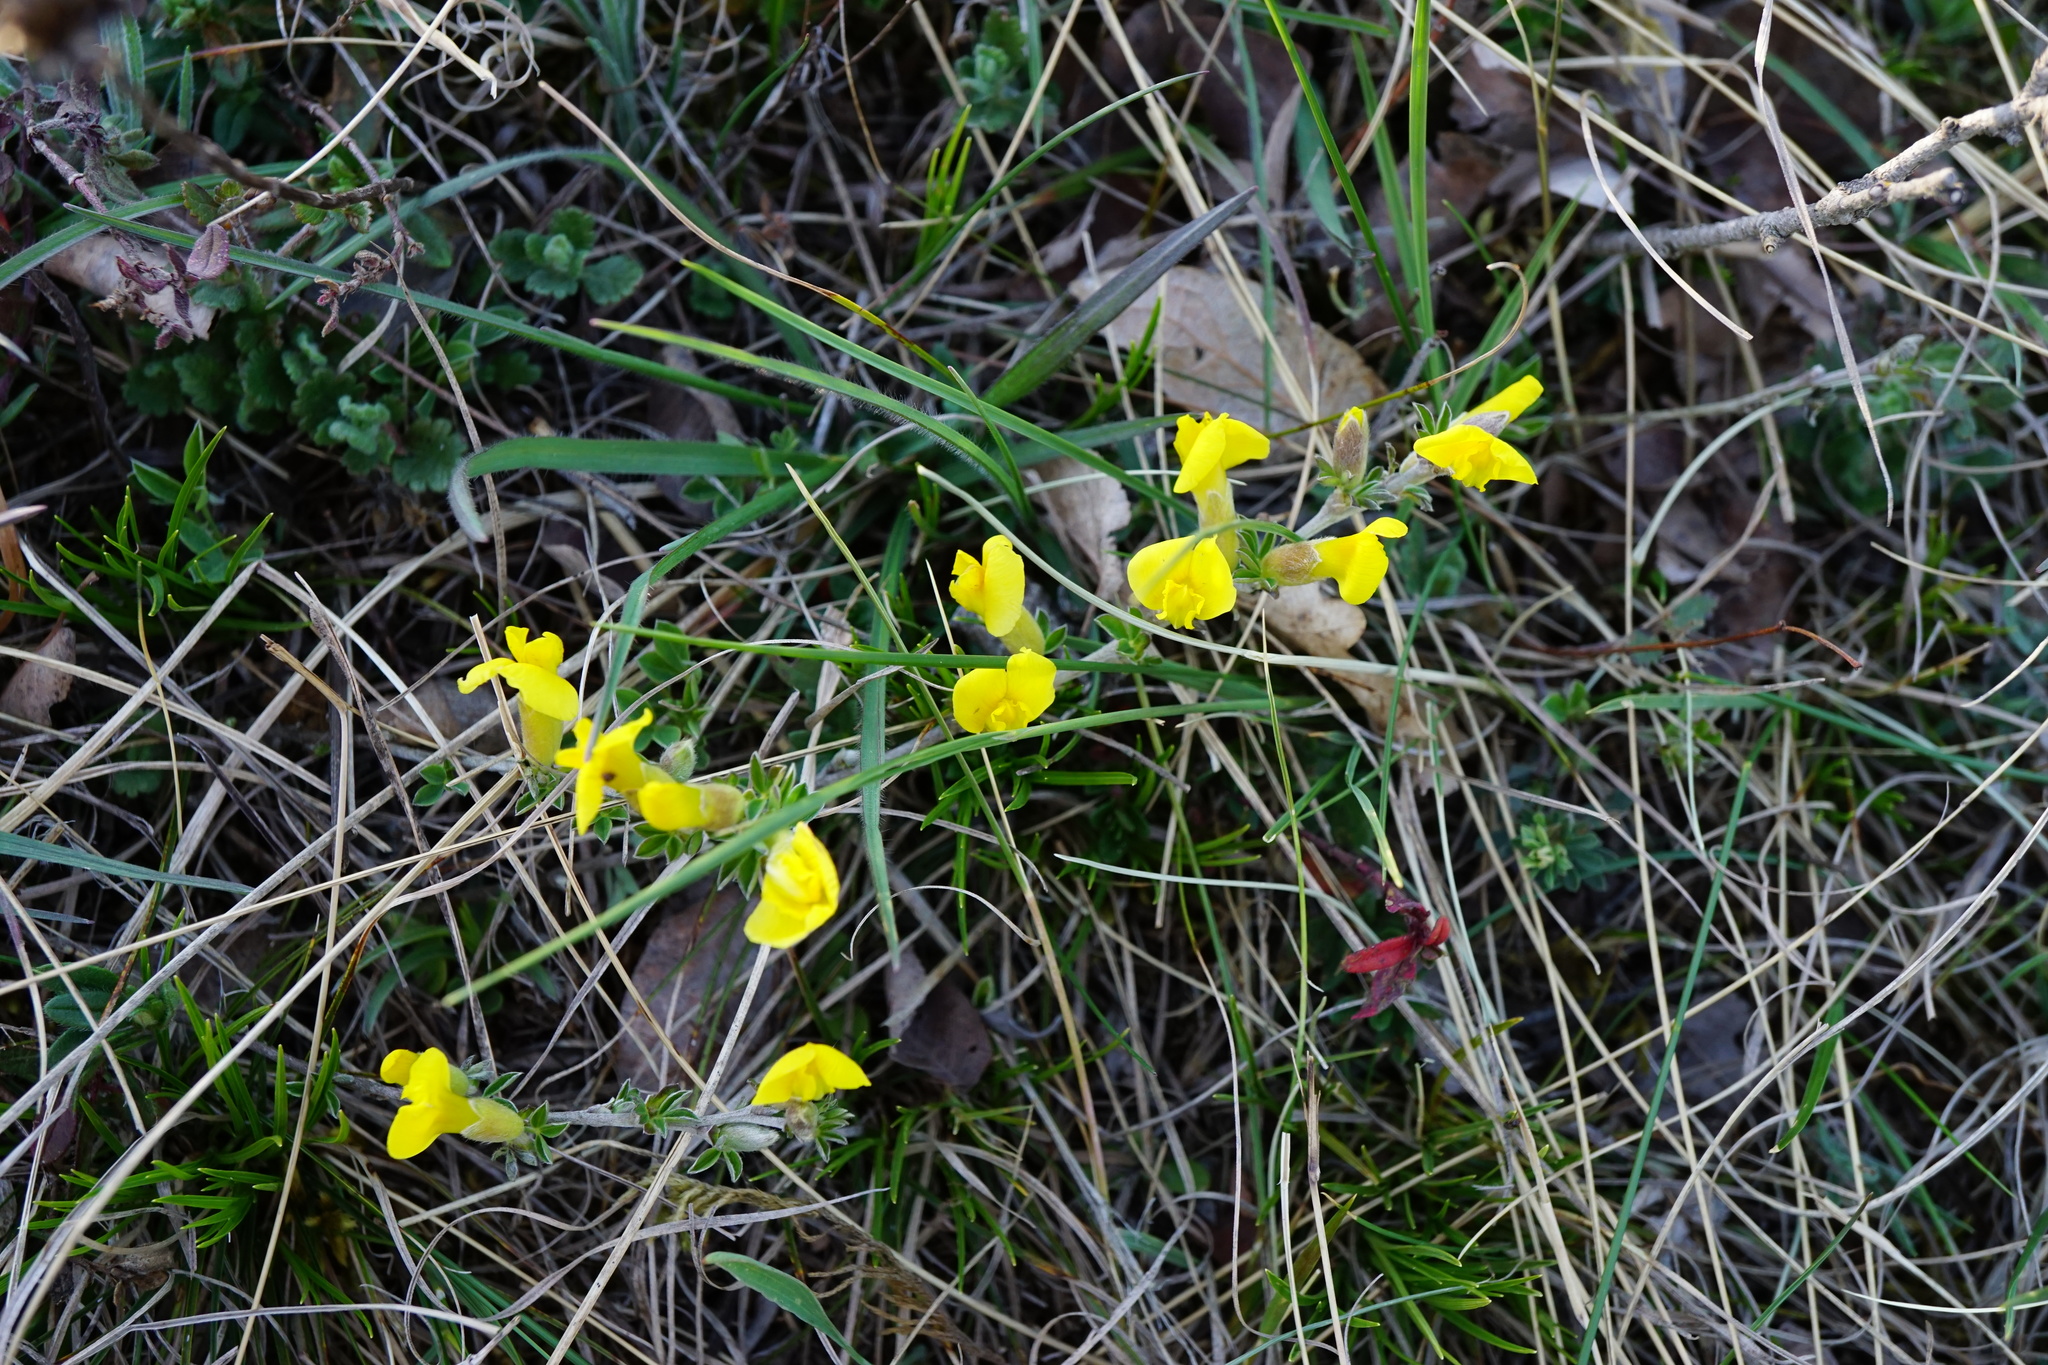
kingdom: Plantae
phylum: Tracheophyta
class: Magnoliopsida
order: Fabales
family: Fabaceae
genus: Chamaecytisus
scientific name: Chamaecytisus ratisbonensis
